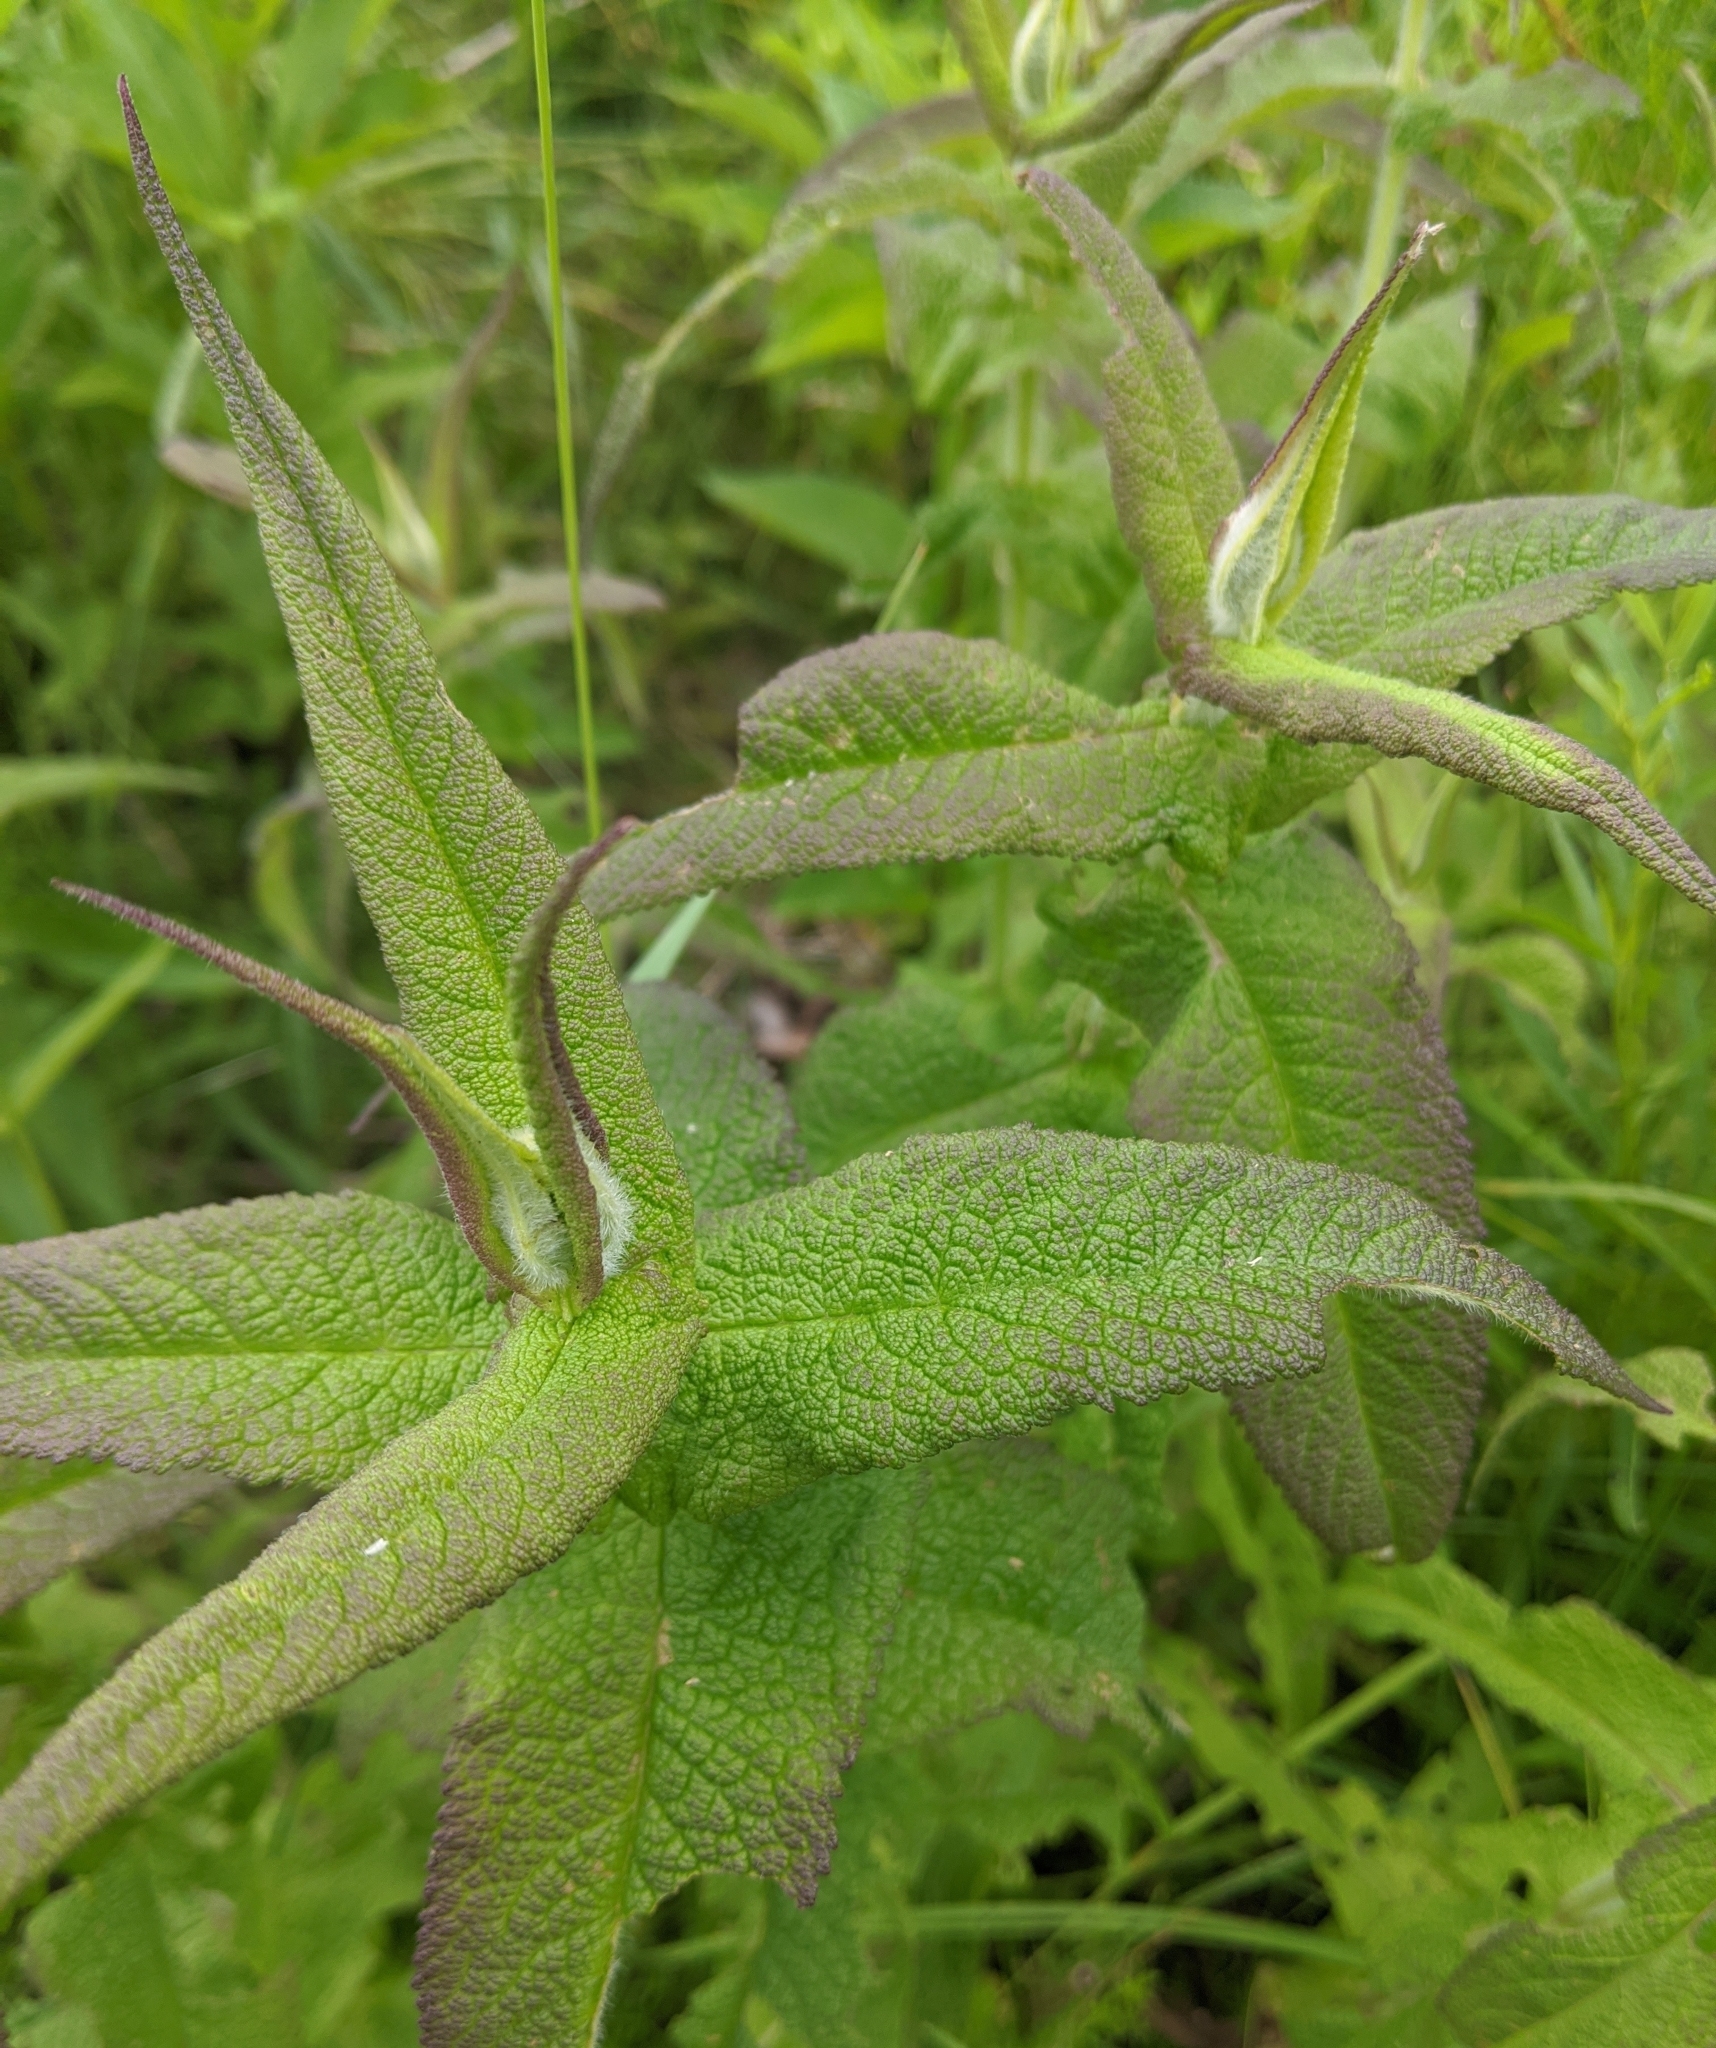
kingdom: Plantae
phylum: Tracheophyta
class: Magnoliopsida
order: Asterales
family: Asteraceae
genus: Eupatorium
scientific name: Eupatorium perfoliatum
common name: Boneset
